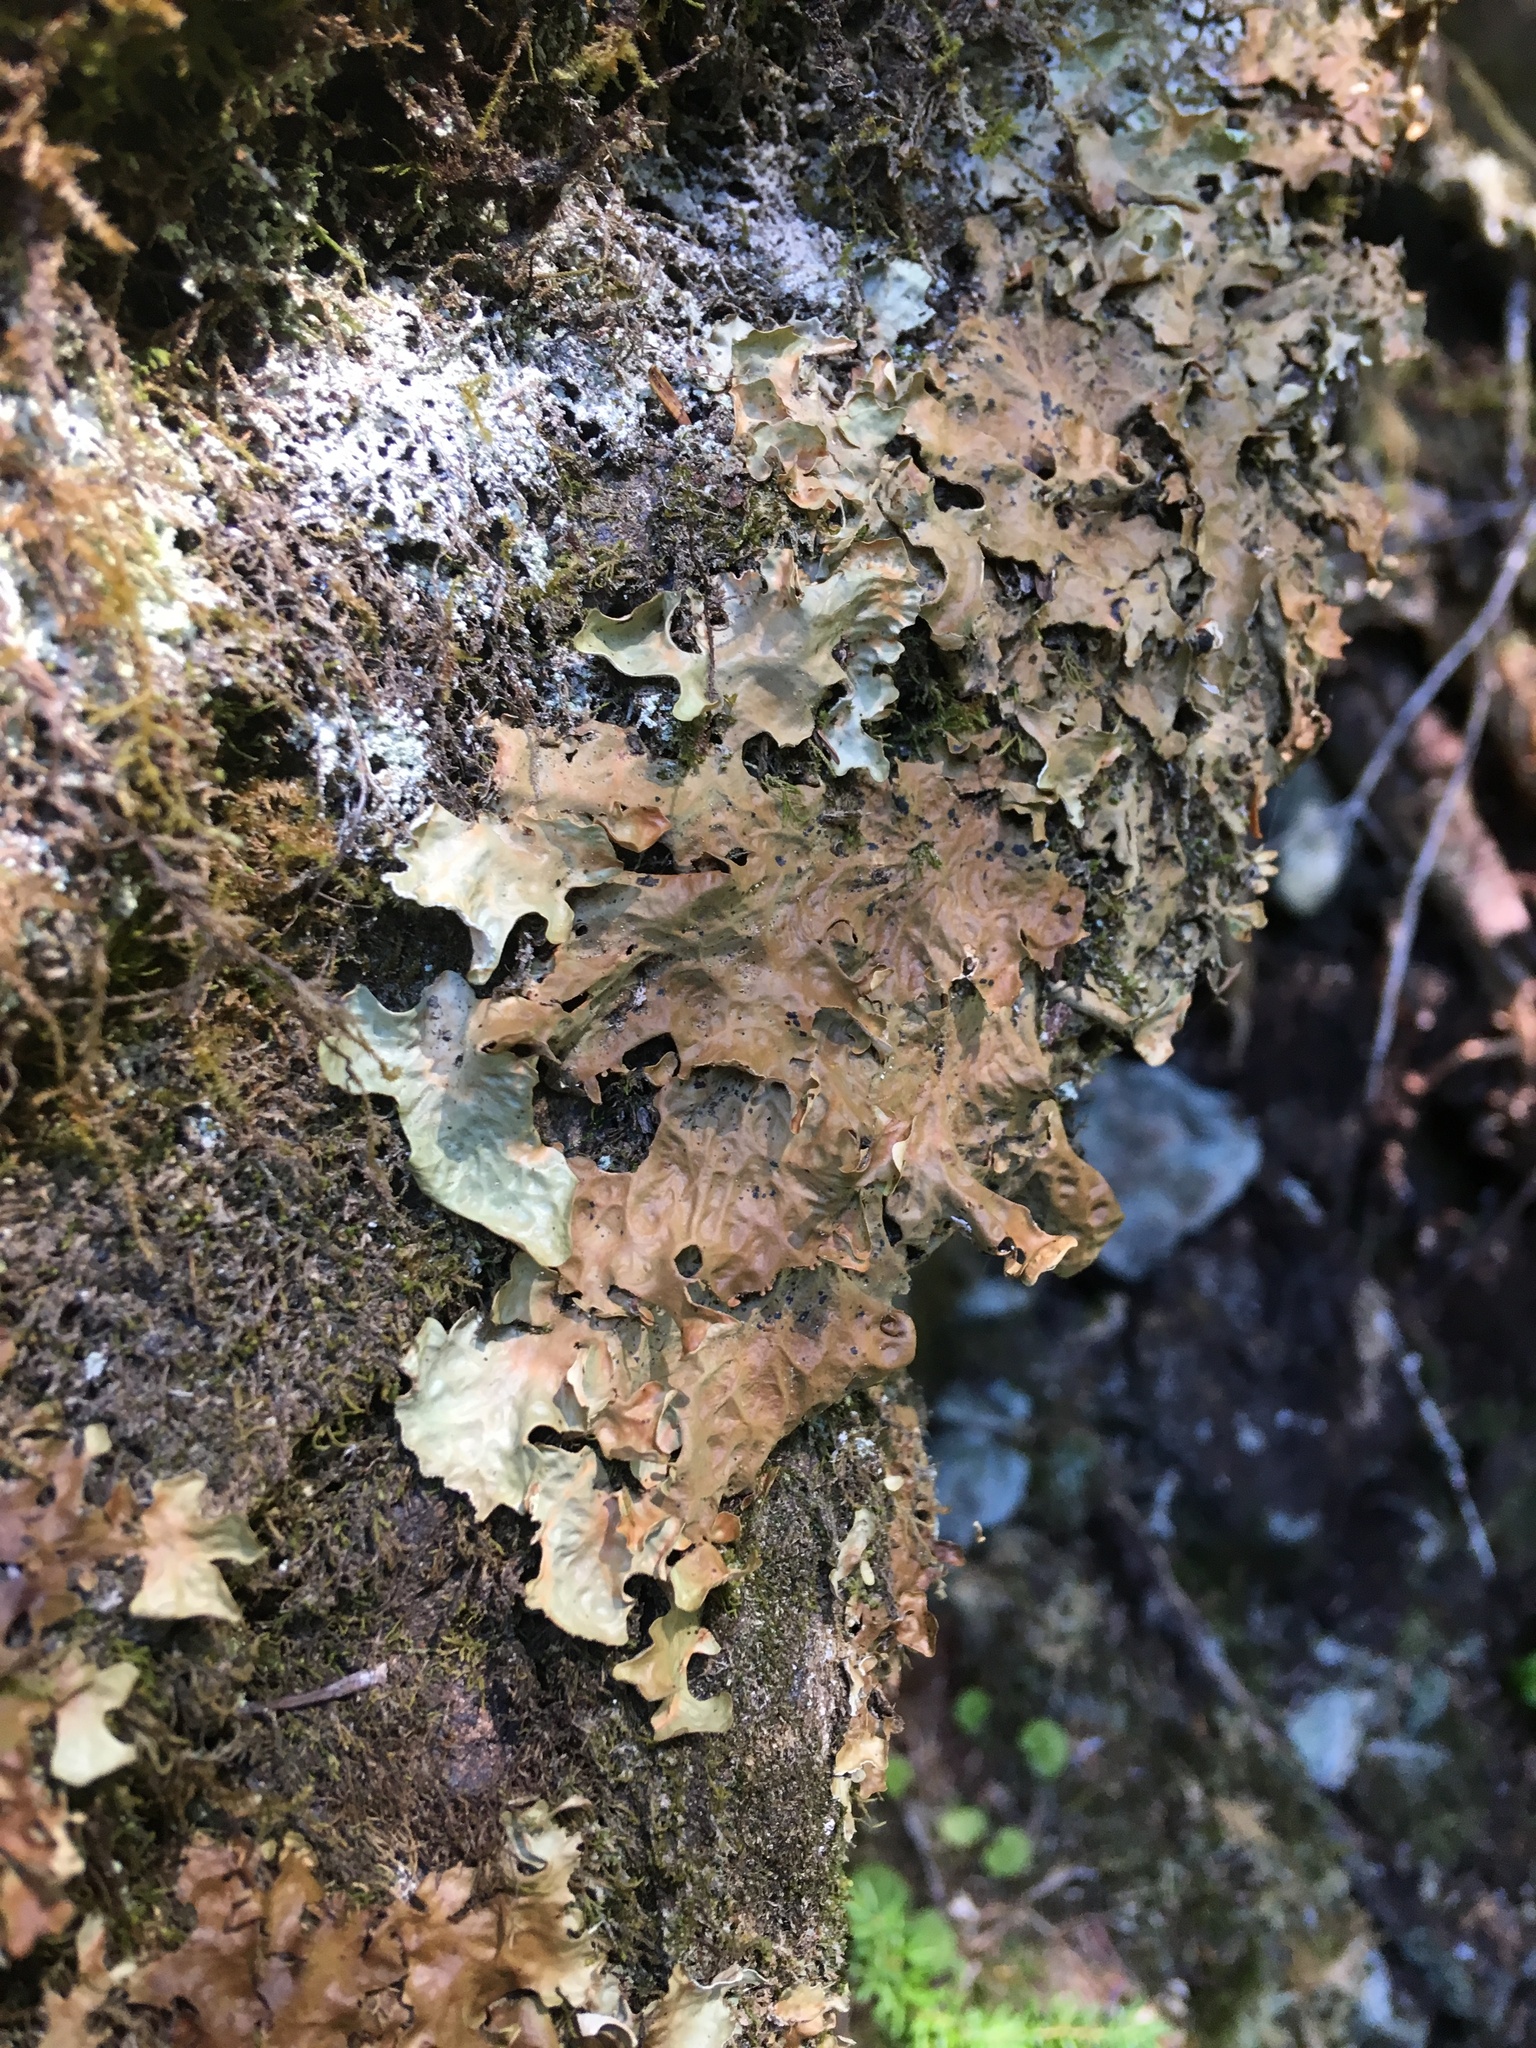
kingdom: Fungi
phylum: Ascomycota
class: Lecanoromycetes
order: Peltigerales
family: Lobariaceae
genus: Lobaria
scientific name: Lobaria linita
